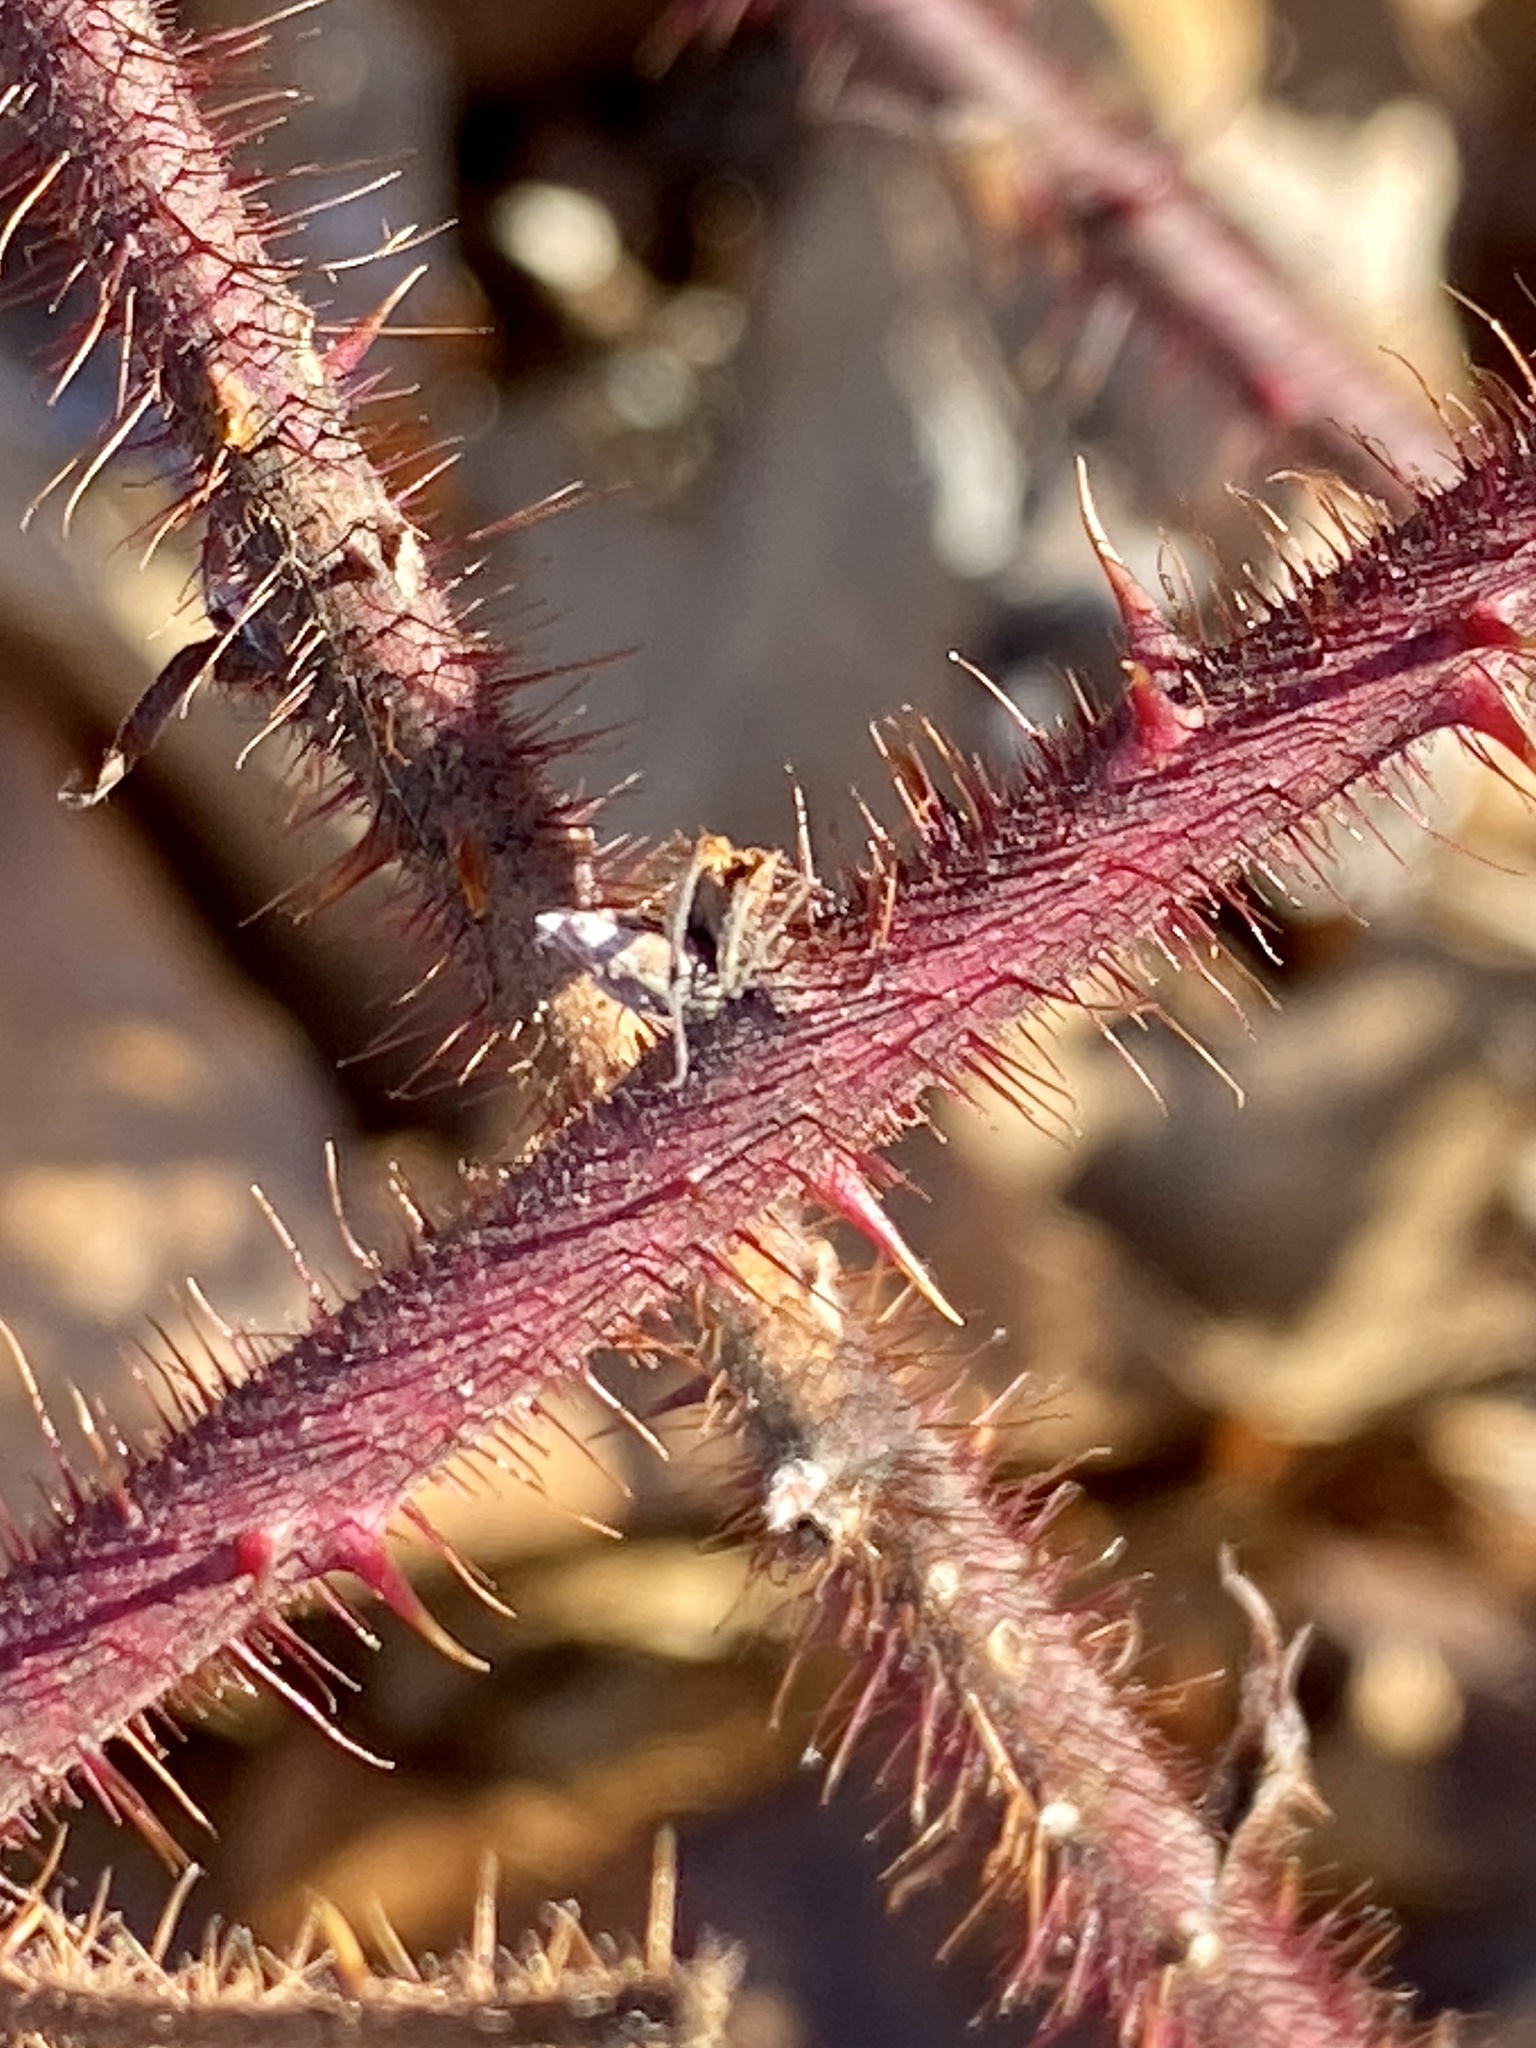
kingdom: Plantae
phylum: Tracheophyta
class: Magnoliopsida
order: Rosales
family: Rosaceae
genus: Rubus
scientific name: Rubus phoenicolasius
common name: Japanese wineberry
